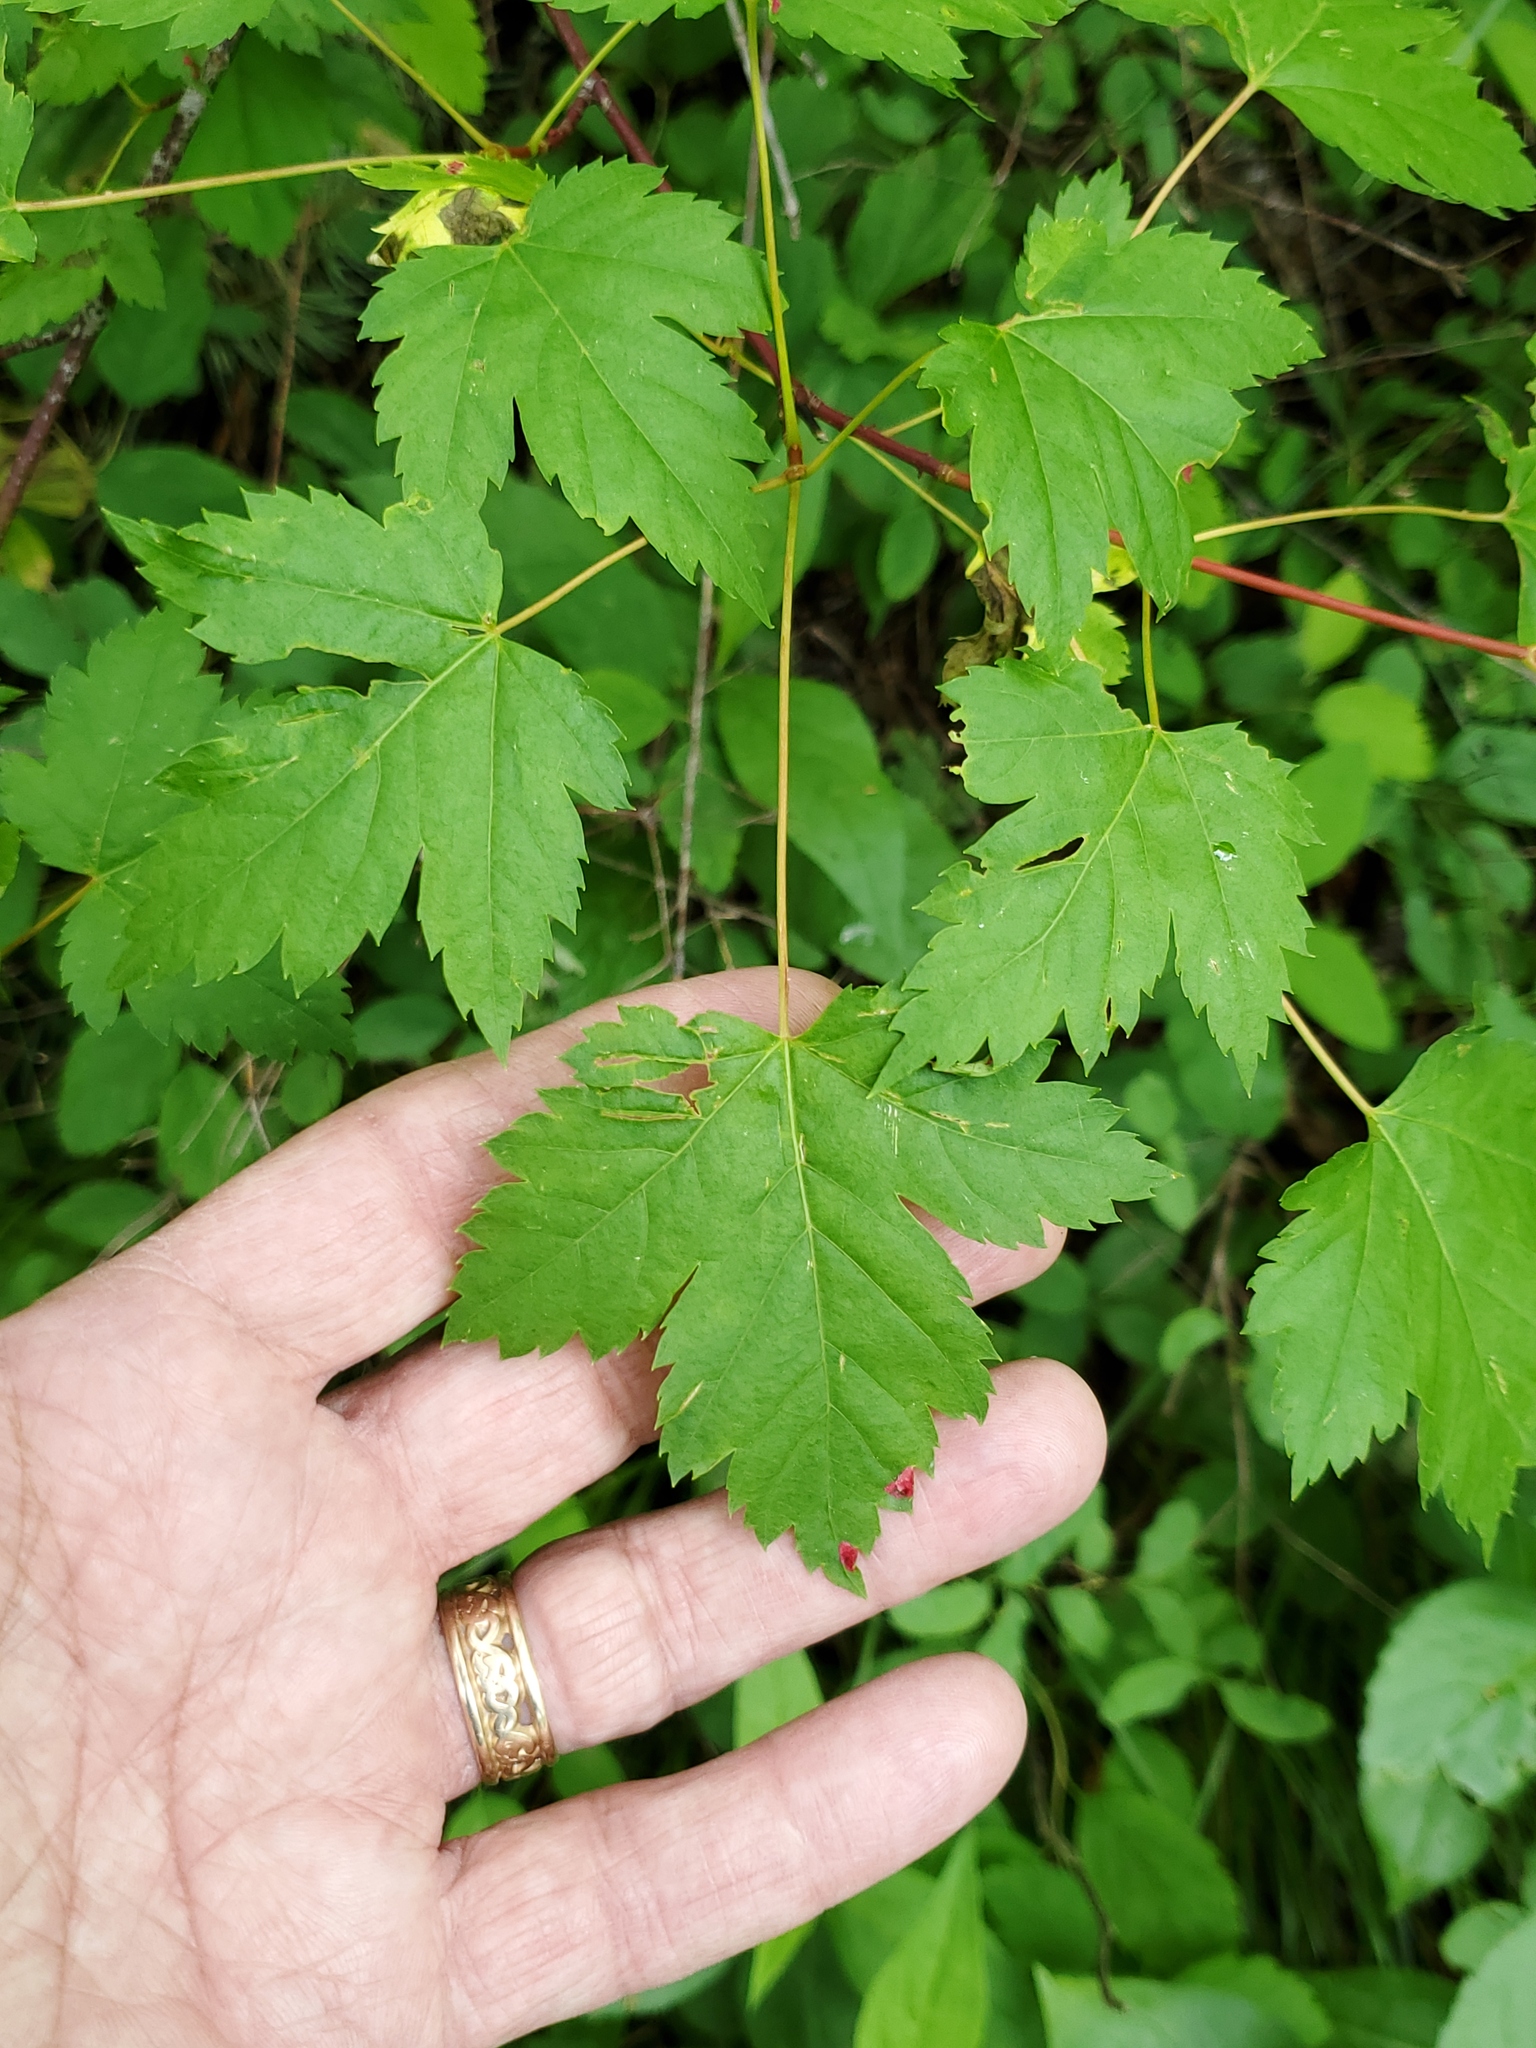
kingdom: Plantae
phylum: Tracheophyta
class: Magnoliopsida
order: Sapindales
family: Sapindaceae
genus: Acer
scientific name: Acer glabrum
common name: Rocky mountain maple
